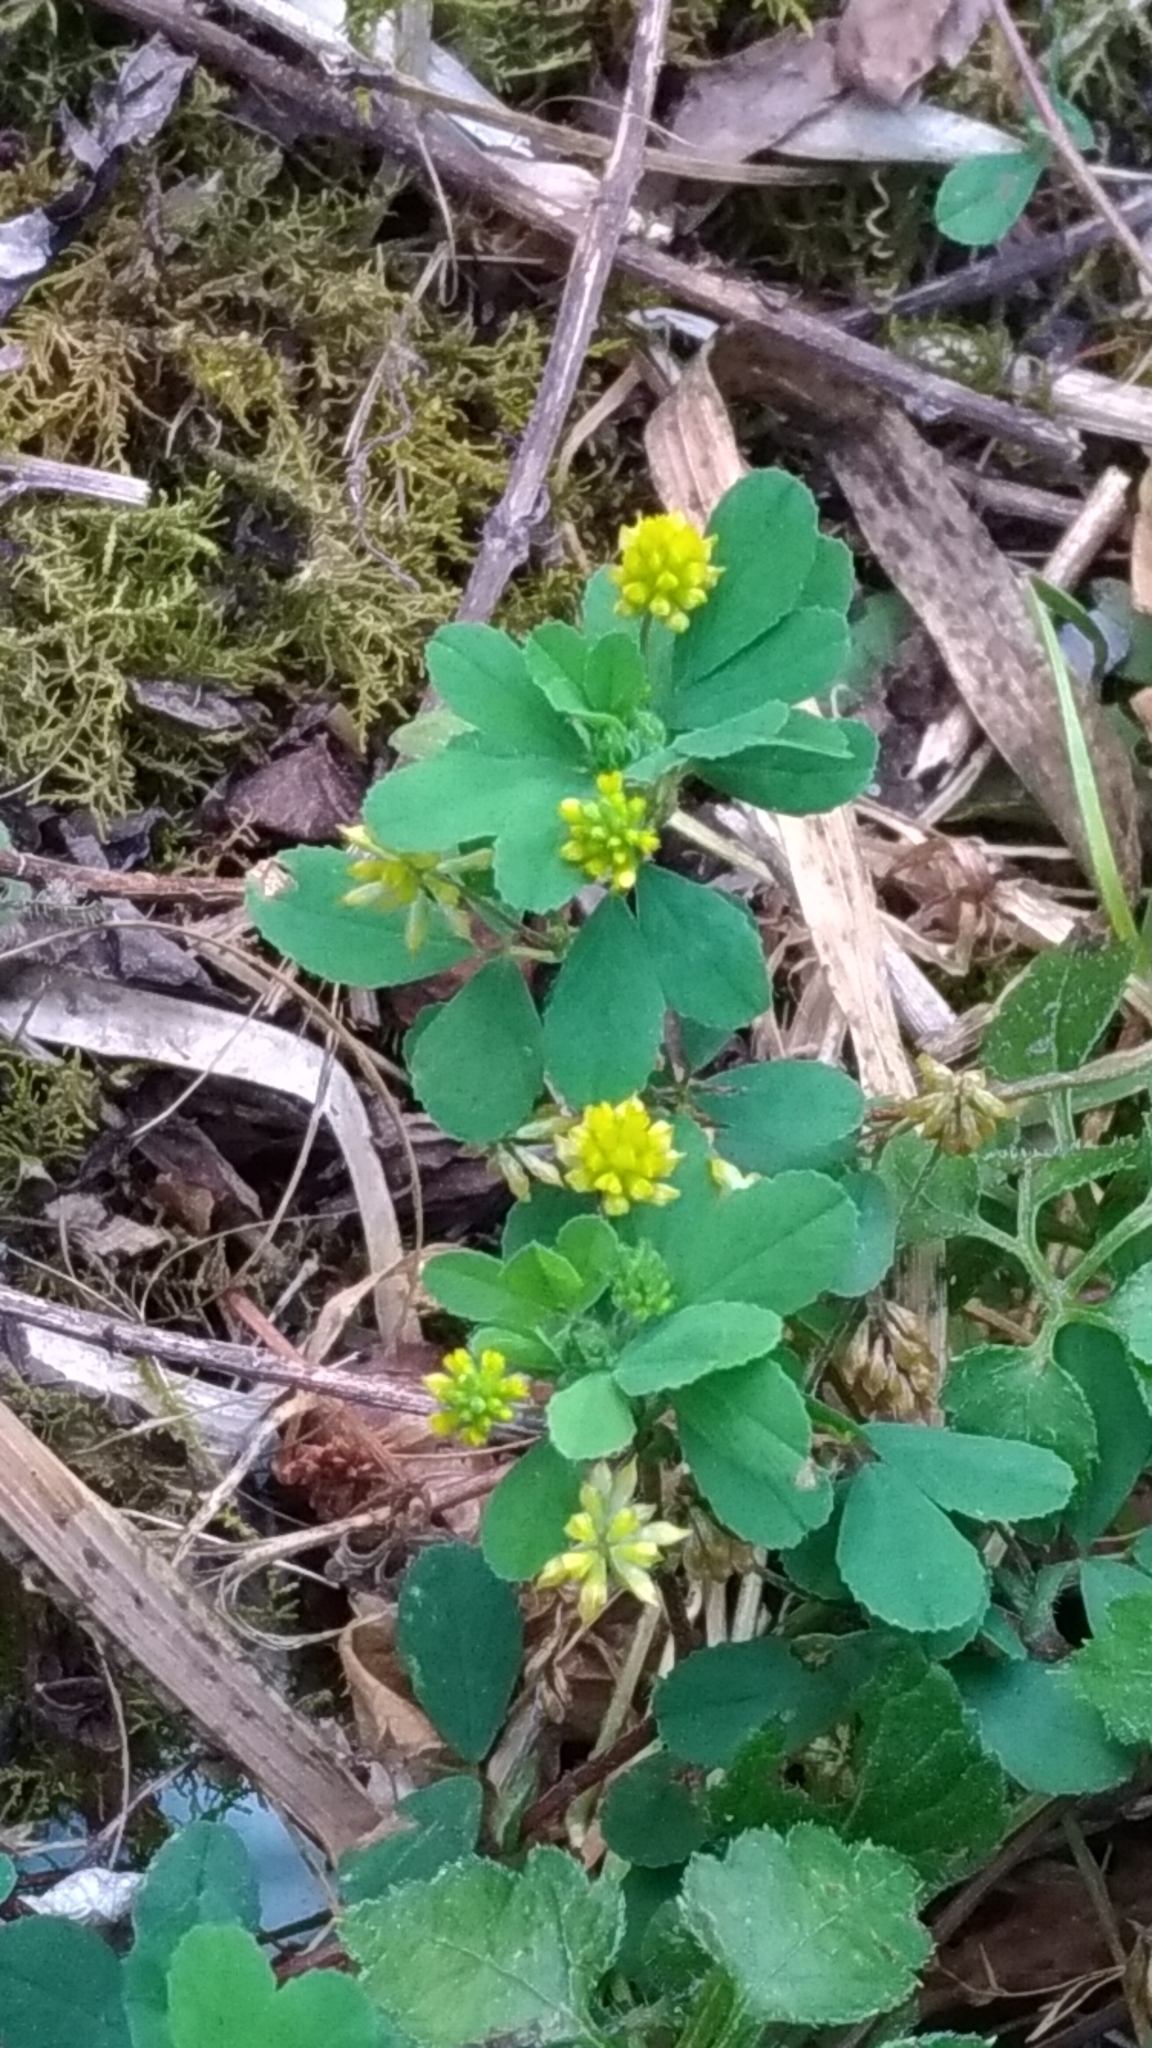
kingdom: Plantae
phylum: Tracheophyta
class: Magnoliopsida
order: Fabales
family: Fabaceae
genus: Trifolium
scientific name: Trifolium dubium
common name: Suckling clover
